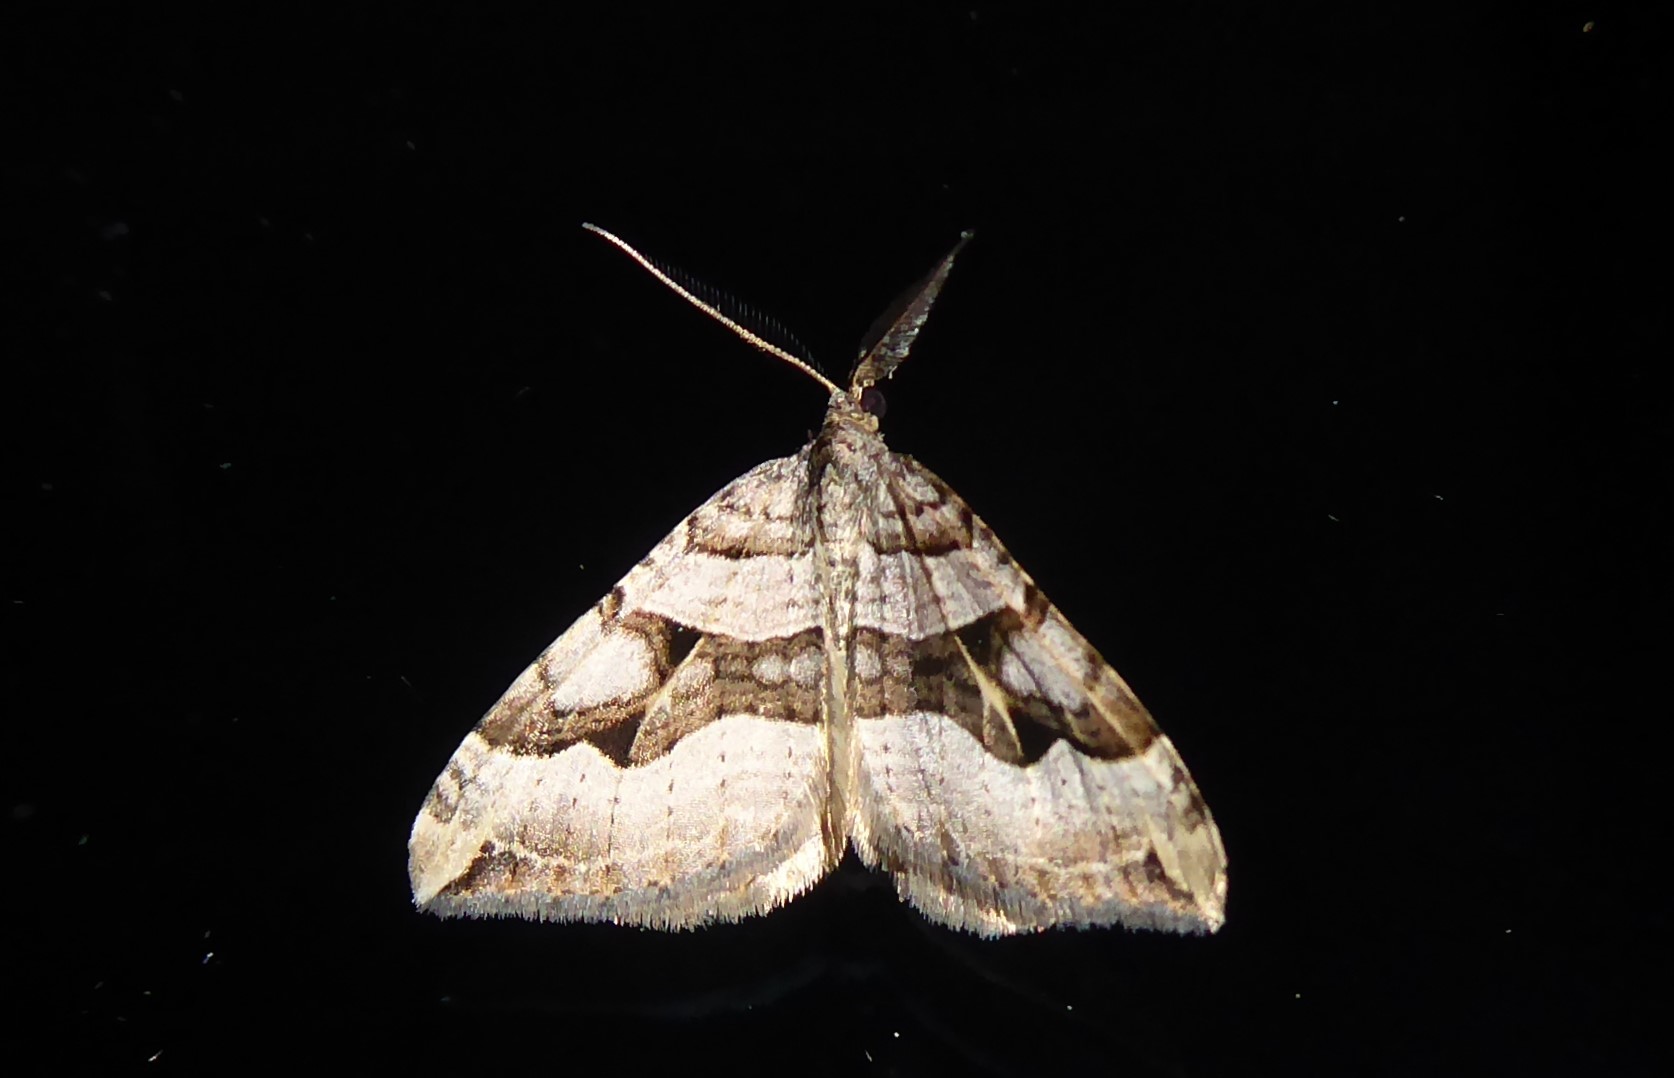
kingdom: Animalia
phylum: Arthropoda
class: Insecta
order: Lepidoptera
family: Geometridae
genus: Xanthorhoe
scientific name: Xanthorhoe semifissata
